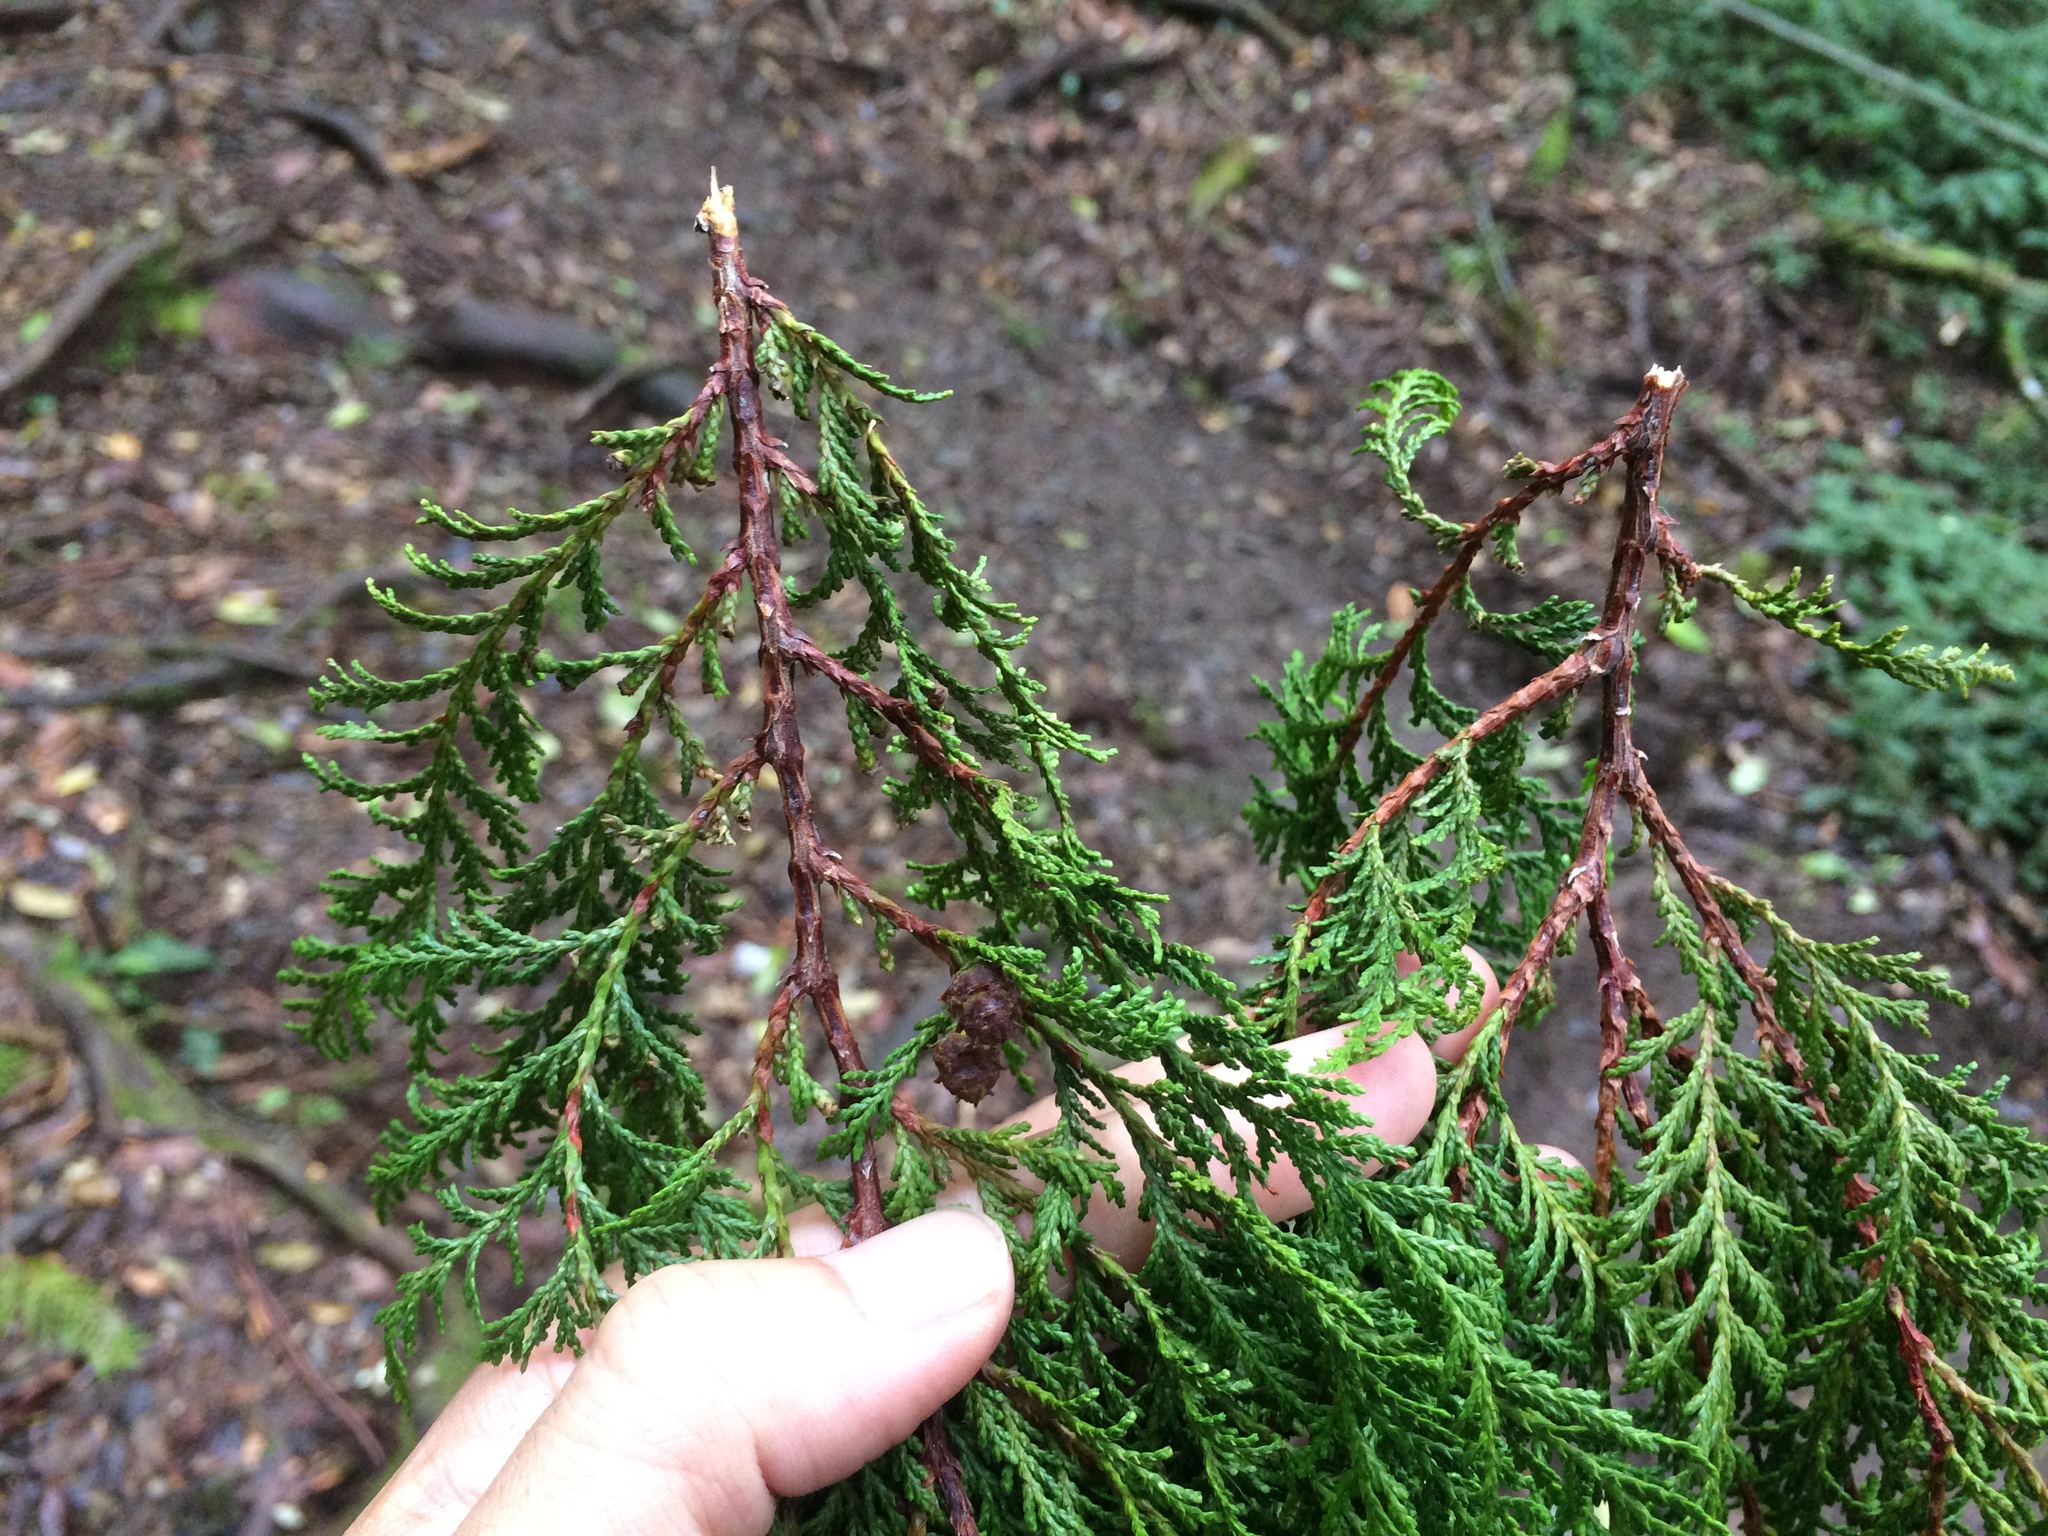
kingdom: Plantae
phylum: Tracheophyta
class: Pinopsida
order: Pinales
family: Cupressaceae
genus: Chamaecyparis
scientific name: Chamaecyparis formosensis
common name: Formosan cypress
